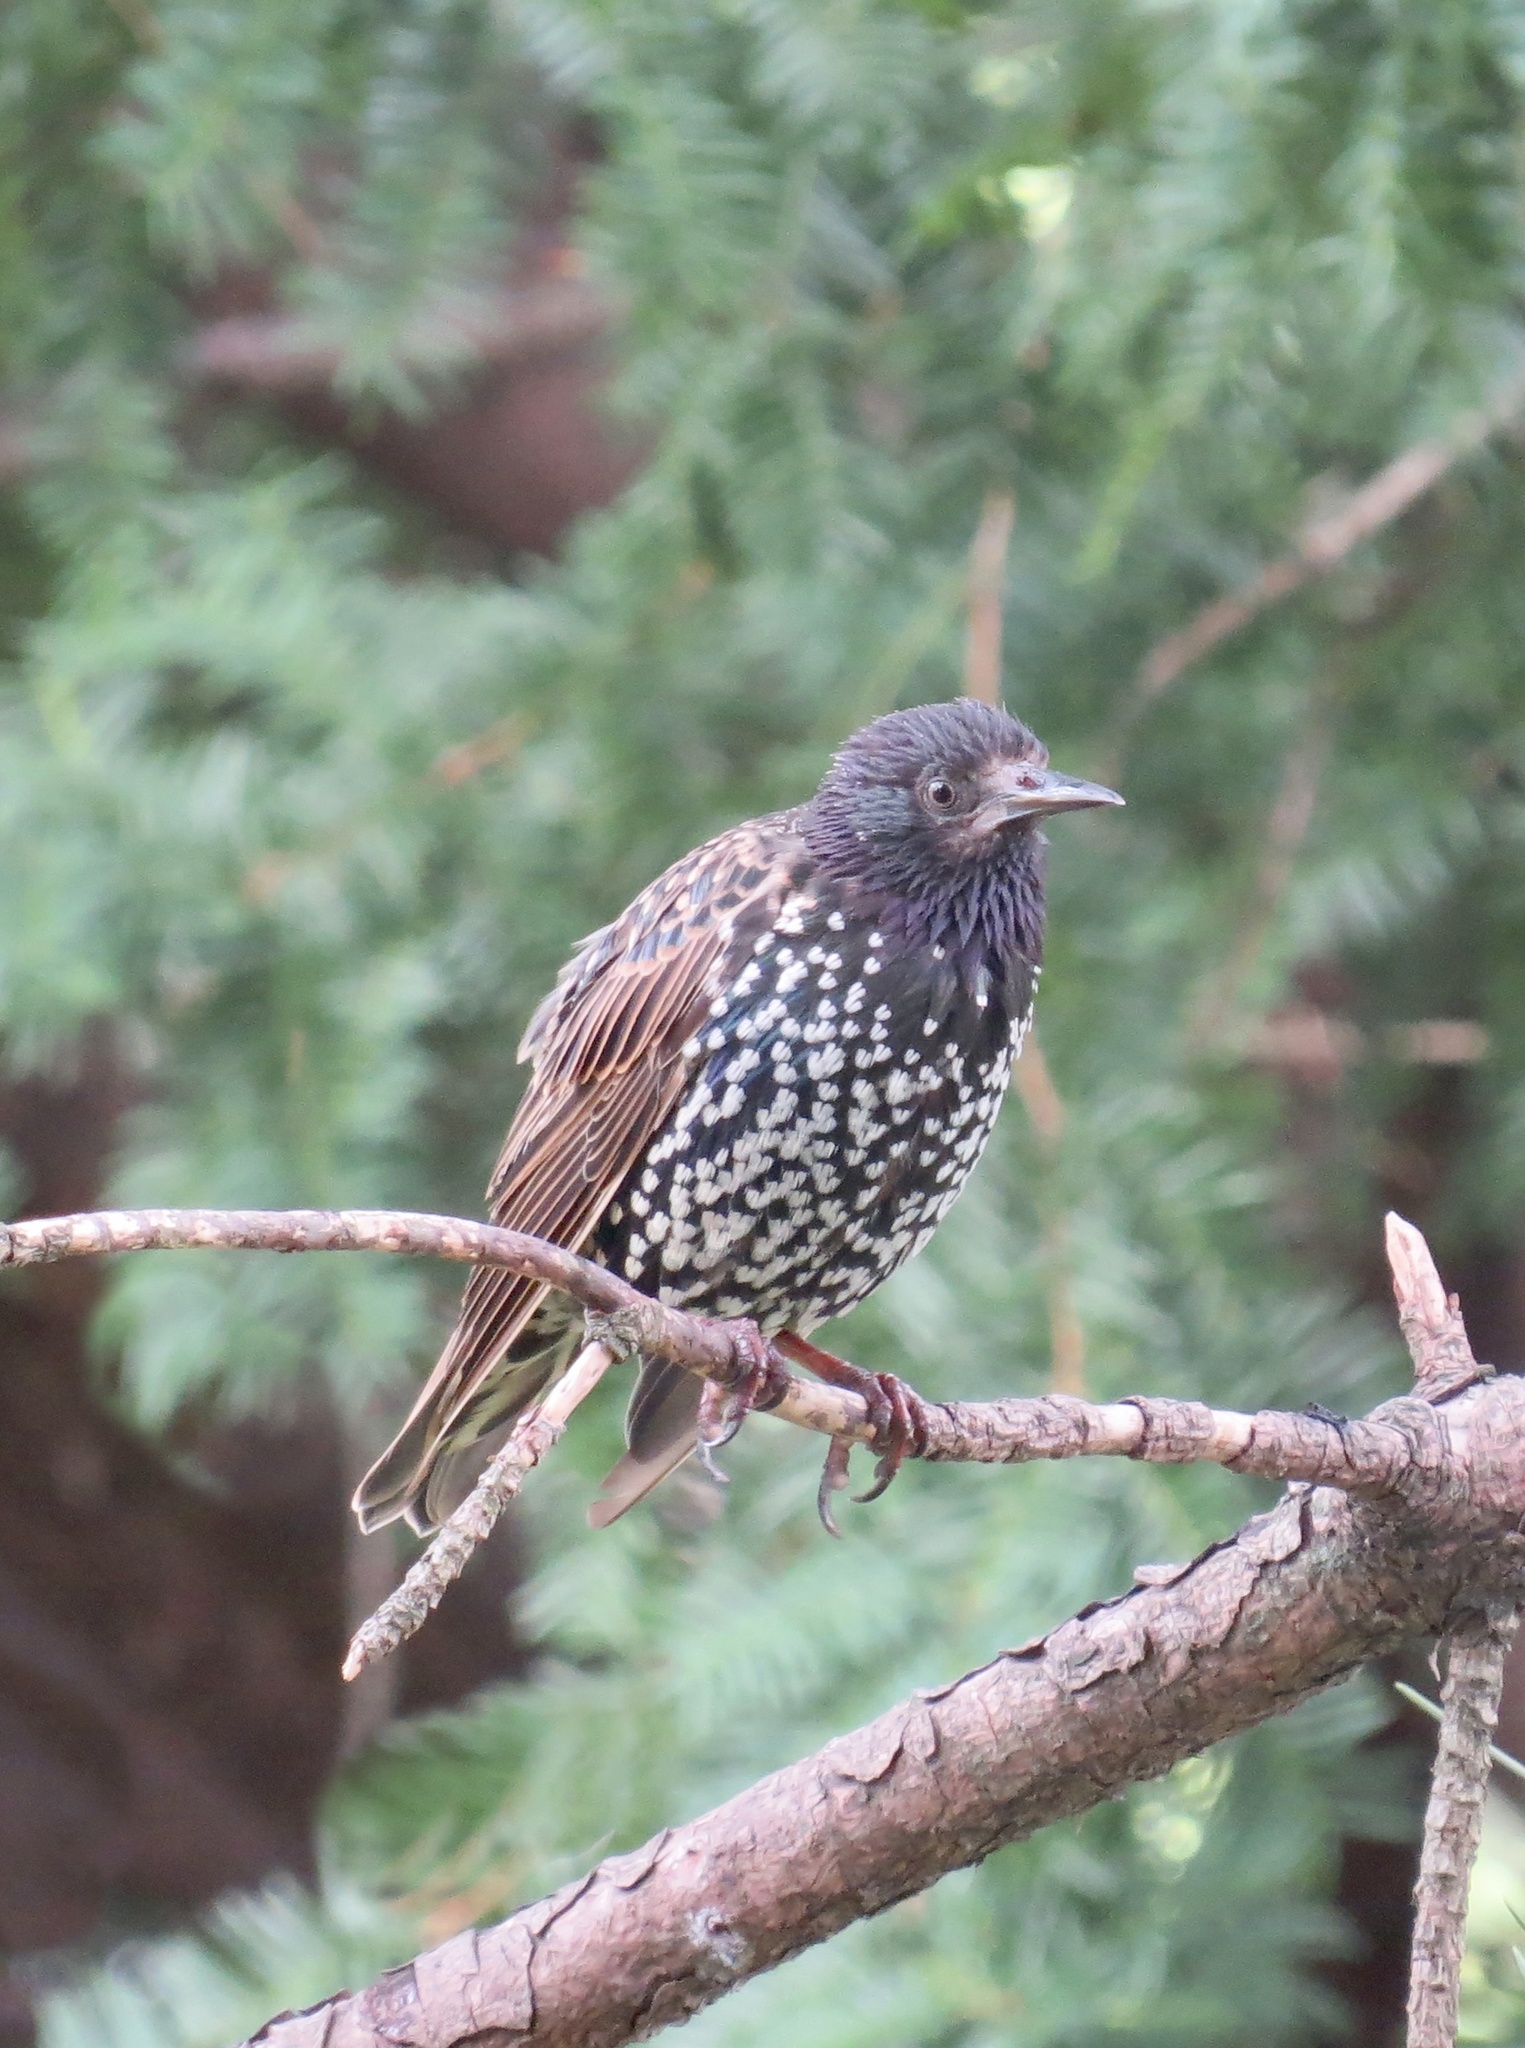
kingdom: Animalia
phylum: Chordata
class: Aves
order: Passeriformes
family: Sturnidae
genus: Sturnus
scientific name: Sturnus vulgaris
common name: Common starling
